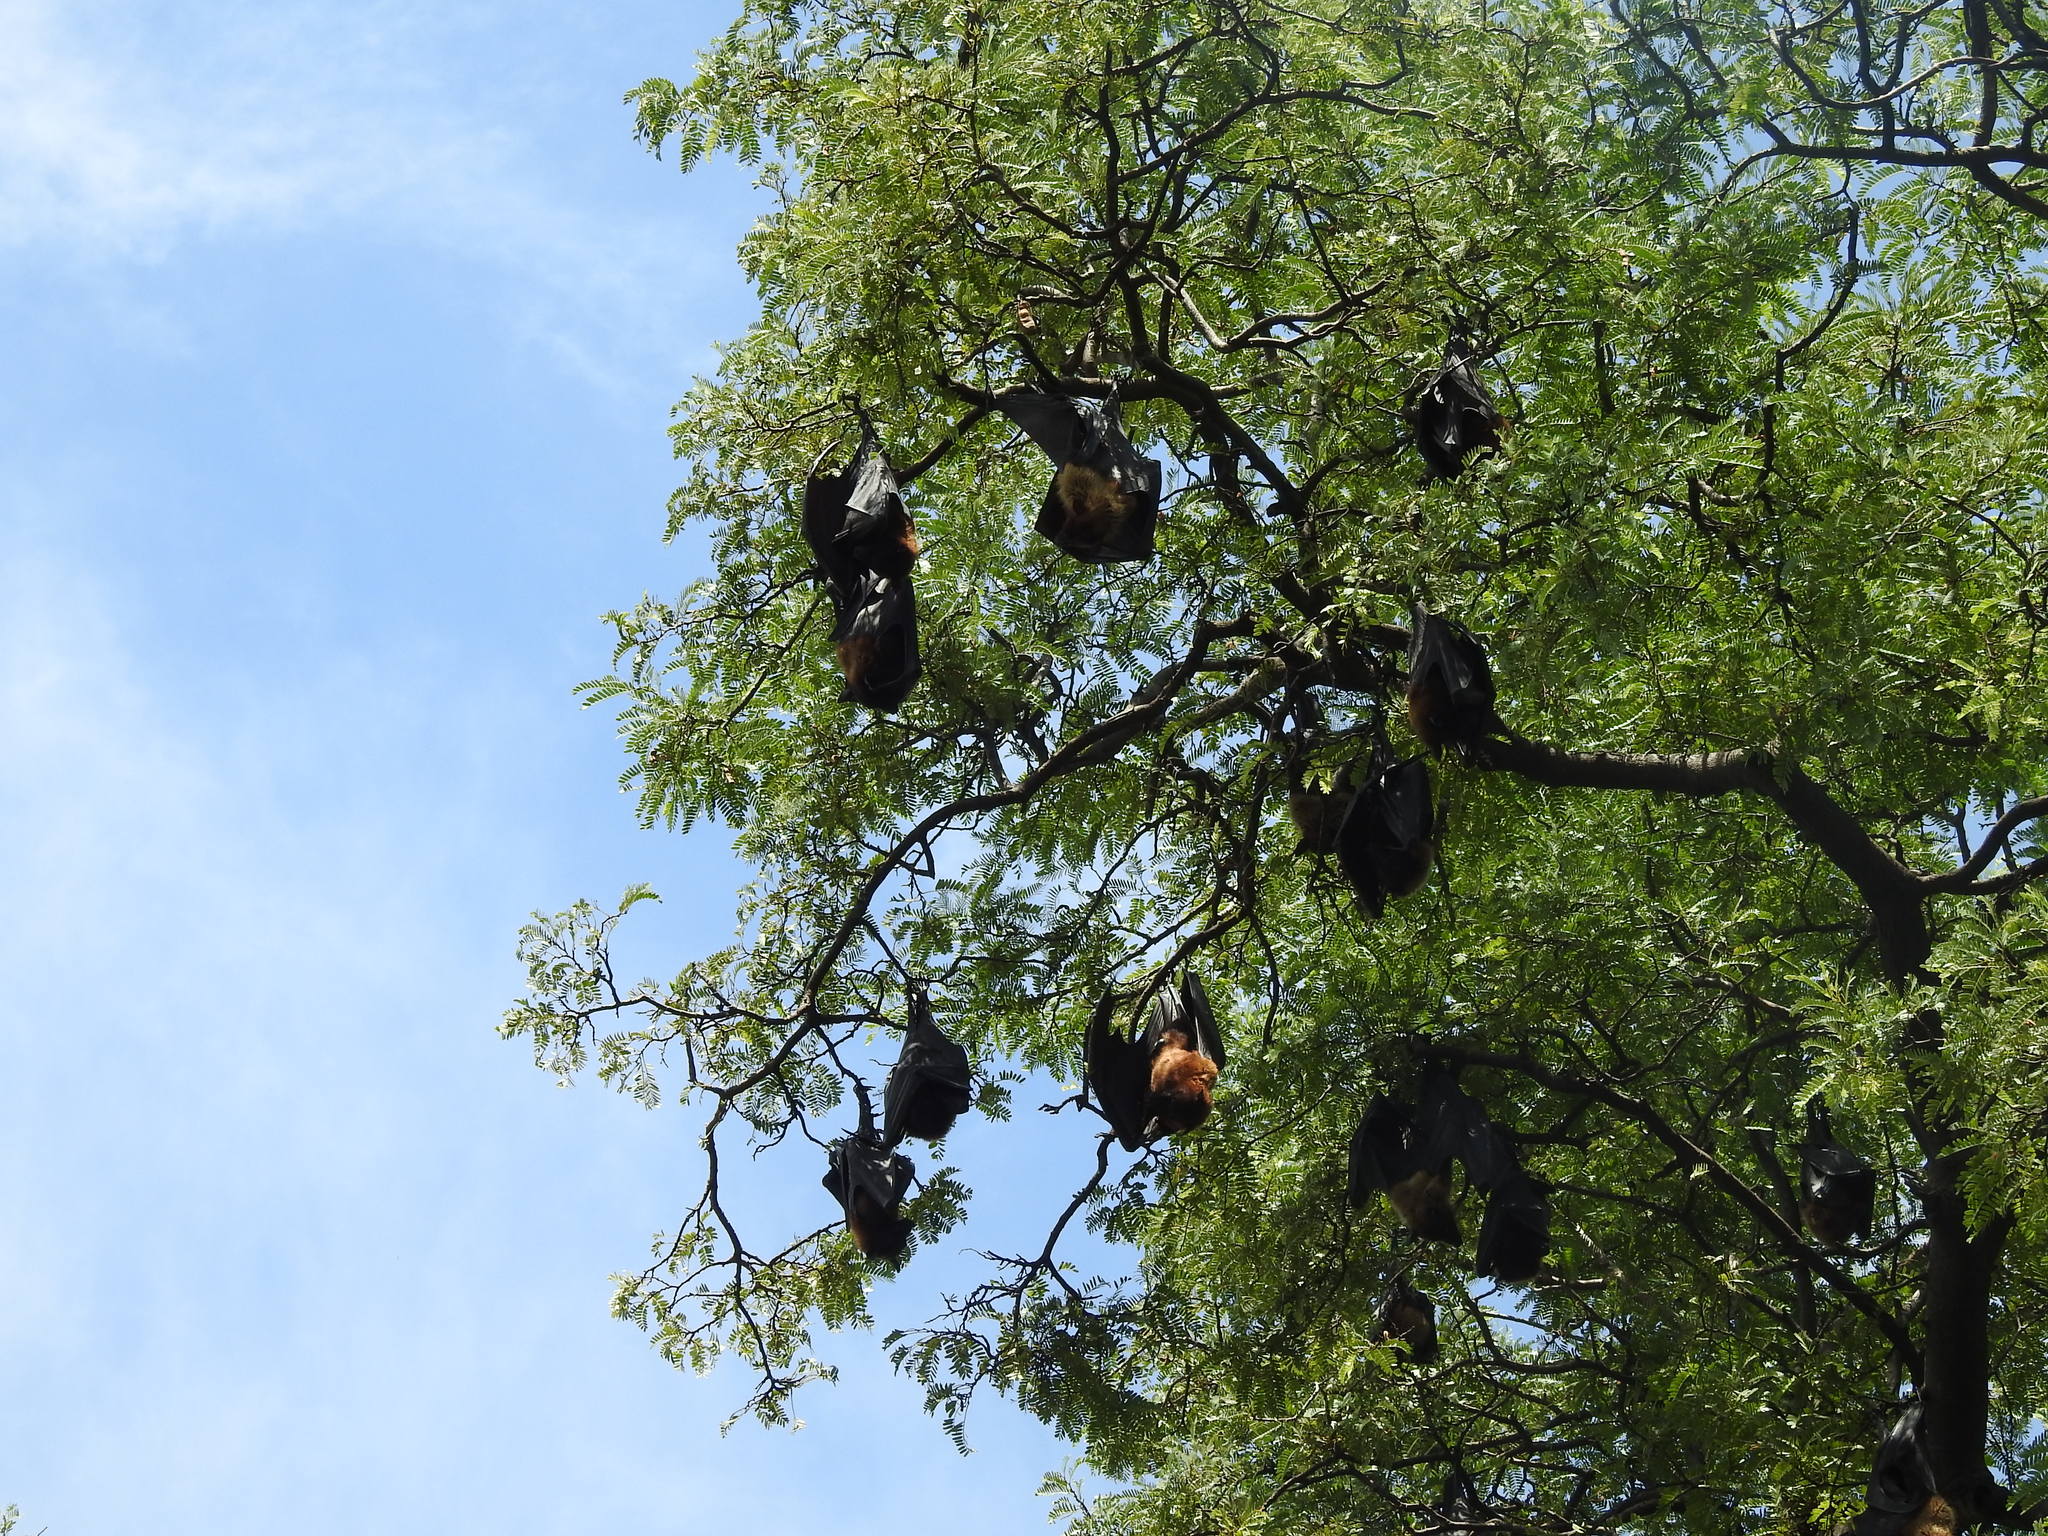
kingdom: Animalia
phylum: Chordata
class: Mammalia
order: Chiroptera
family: Pteropodidae
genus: Pteropus
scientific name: Pteropus vampyrus
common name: Large flying fox
